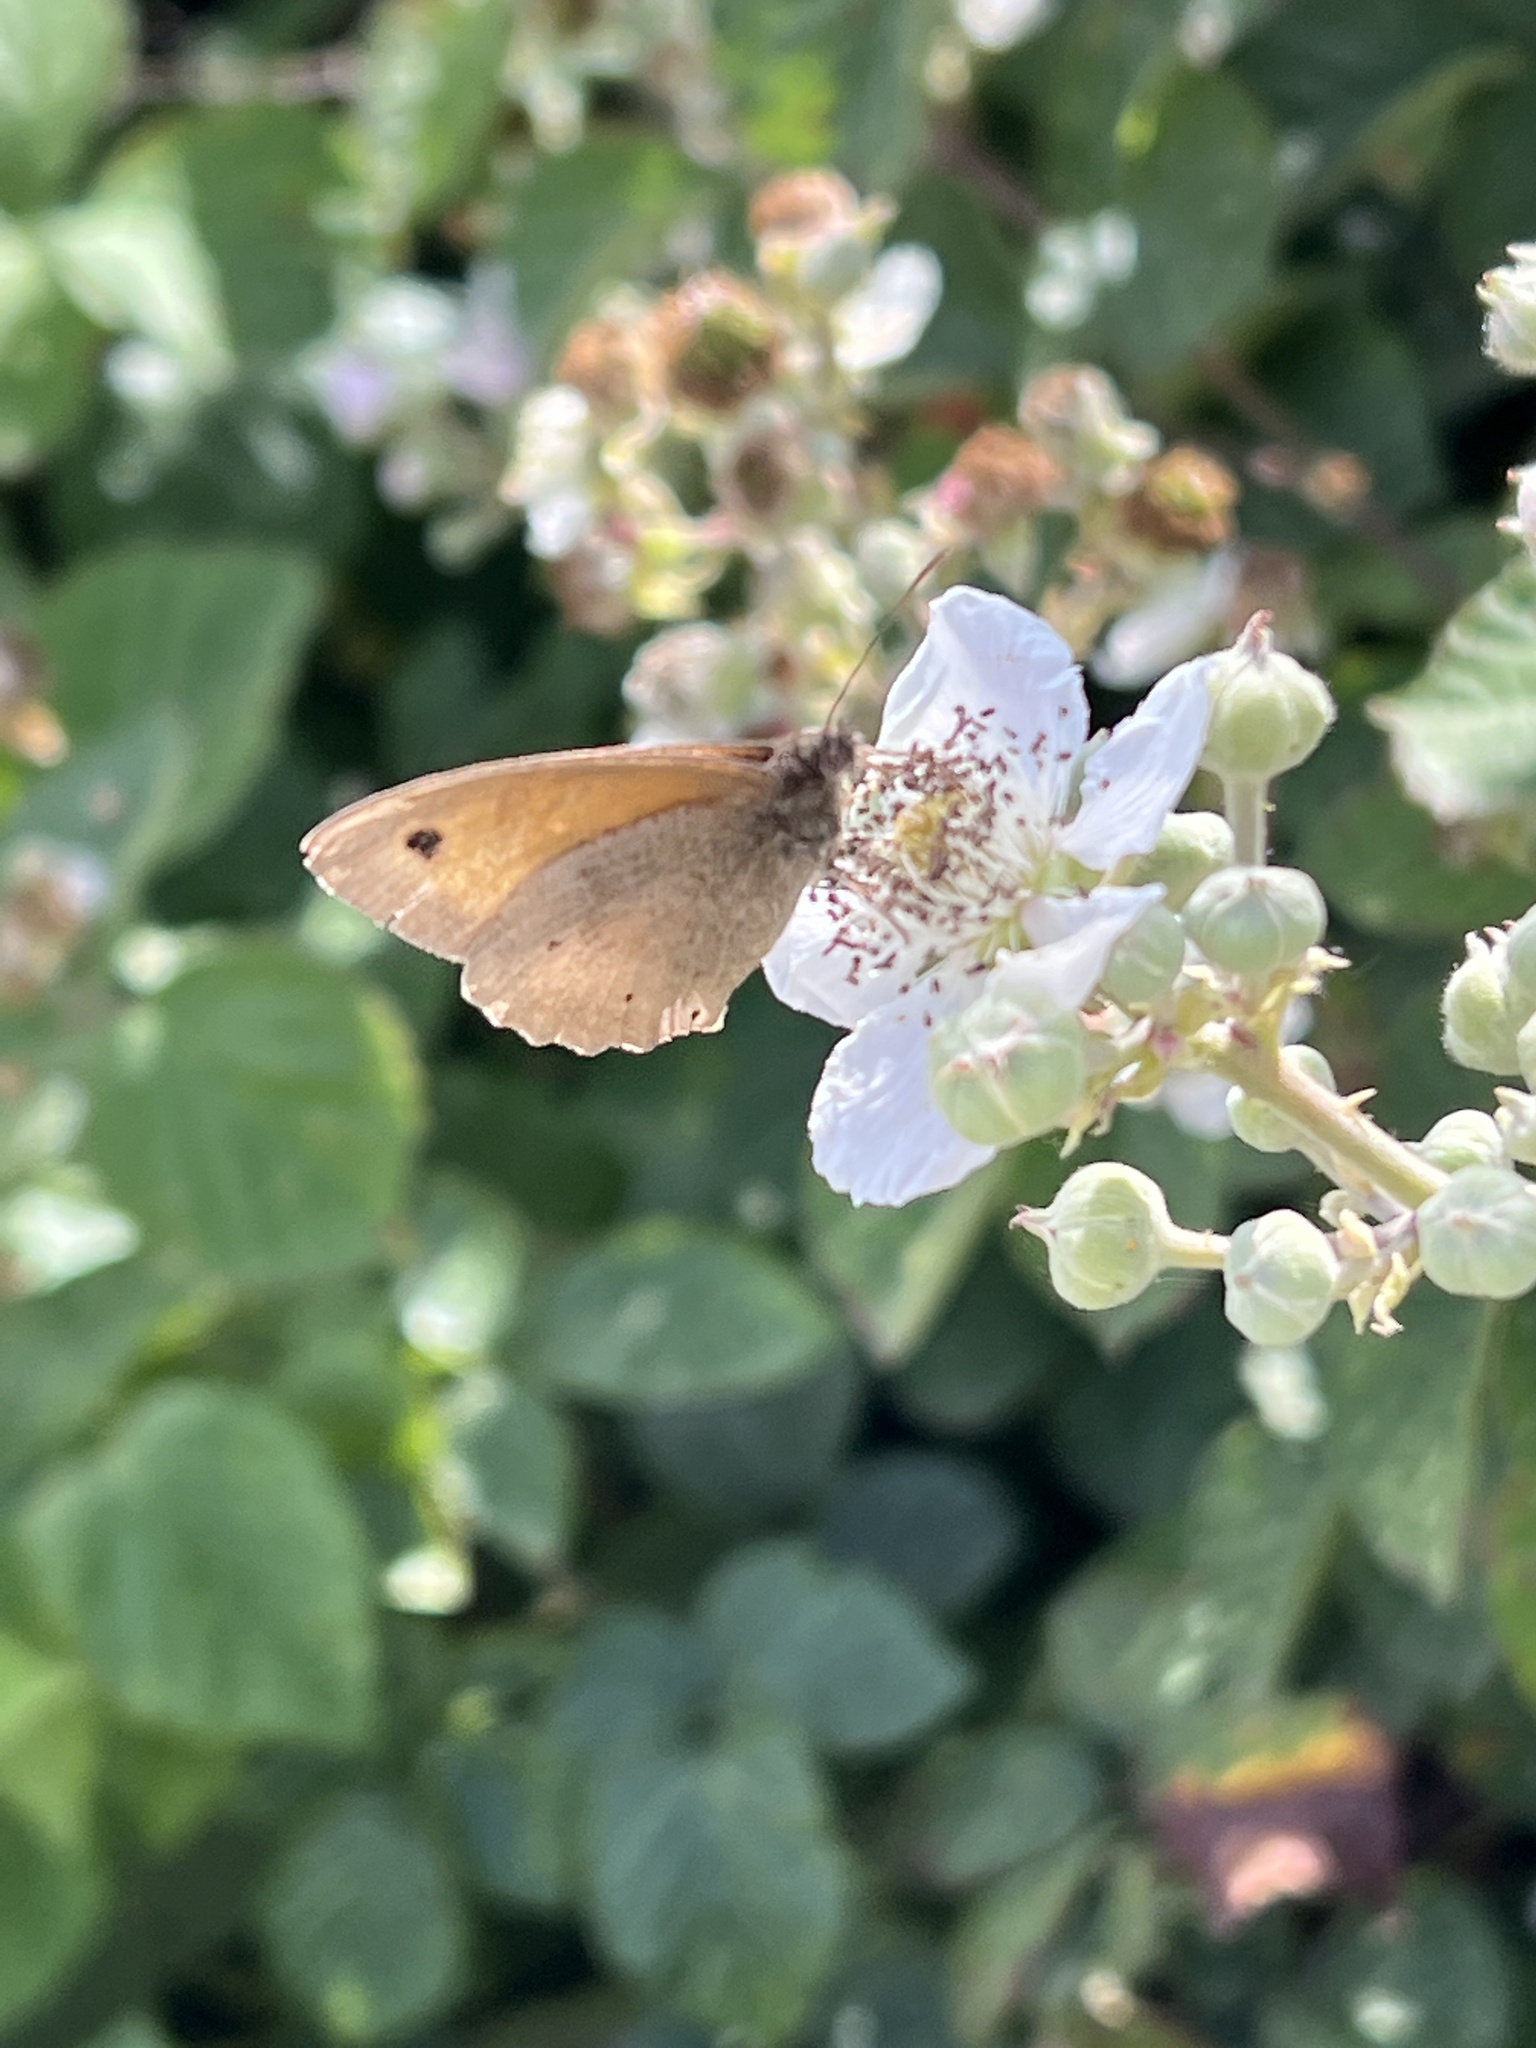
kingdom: Animalia
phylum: Arthropoda
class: Insecta
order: Lepidoptera
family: Nymphalidae
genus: Maniola
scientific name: Maniola jurtina
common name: Meadow brown
